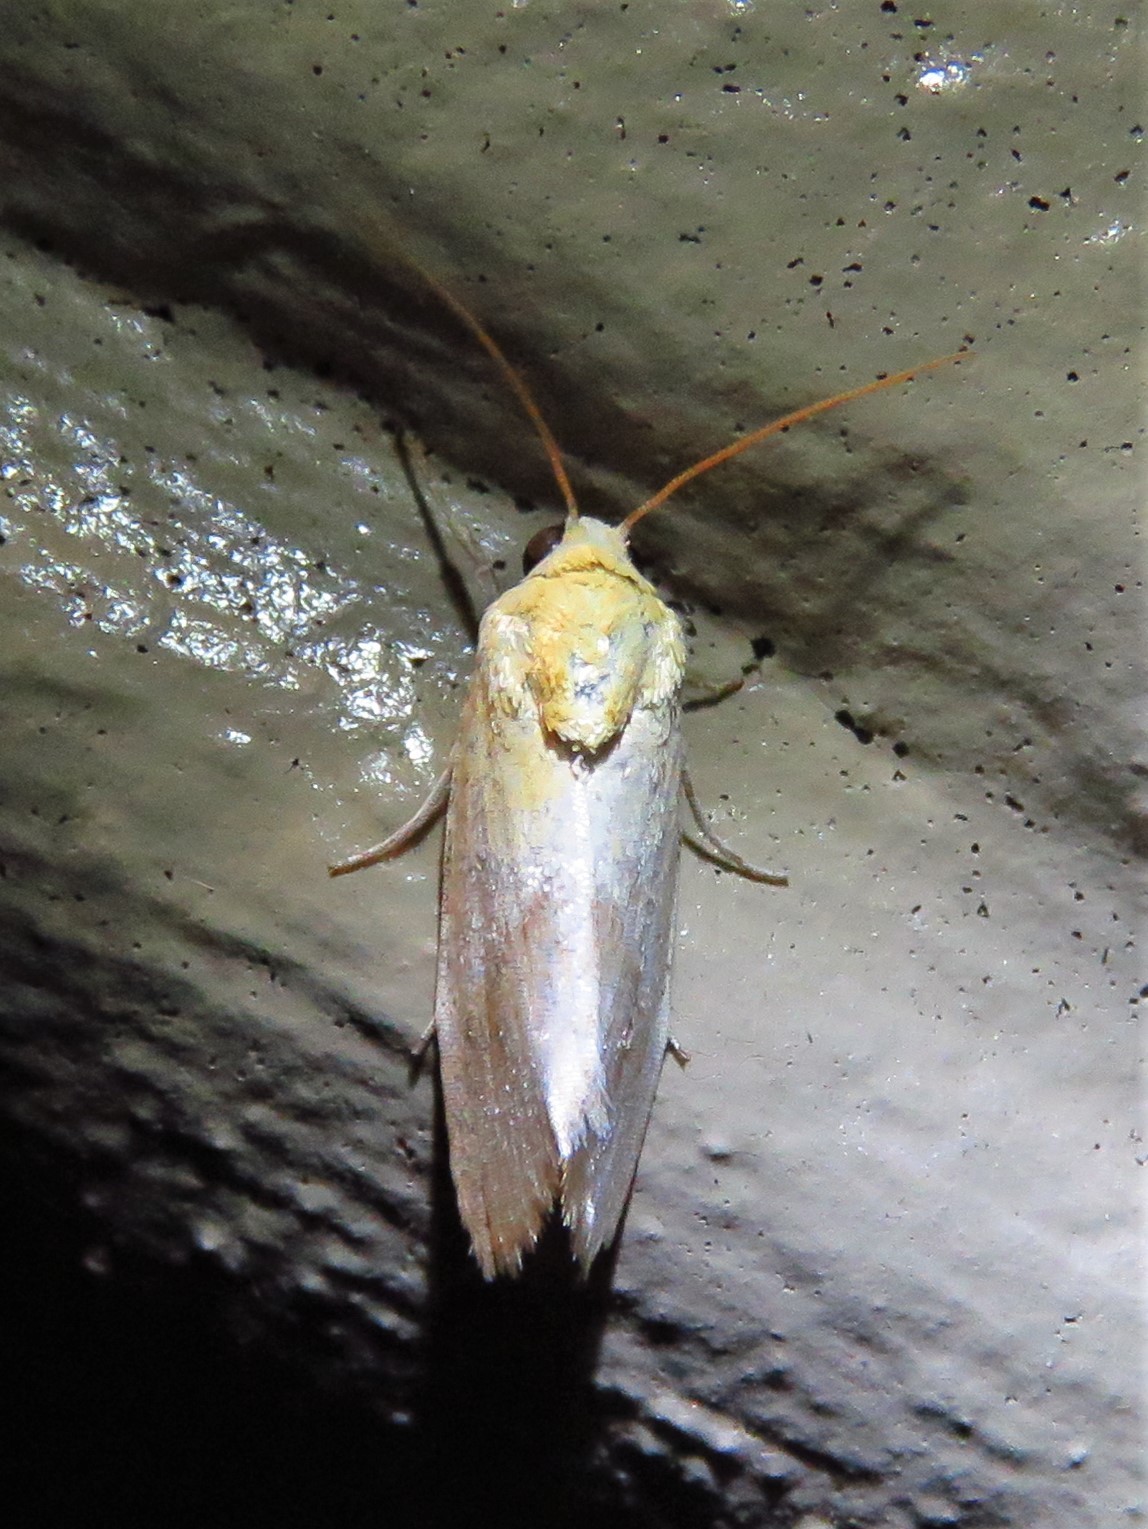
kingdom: Animalia
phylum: Arthropoda
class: Insecta
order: Lepidoptera
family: Noctuidae
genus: Acontia
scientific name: Acontia semiflava
